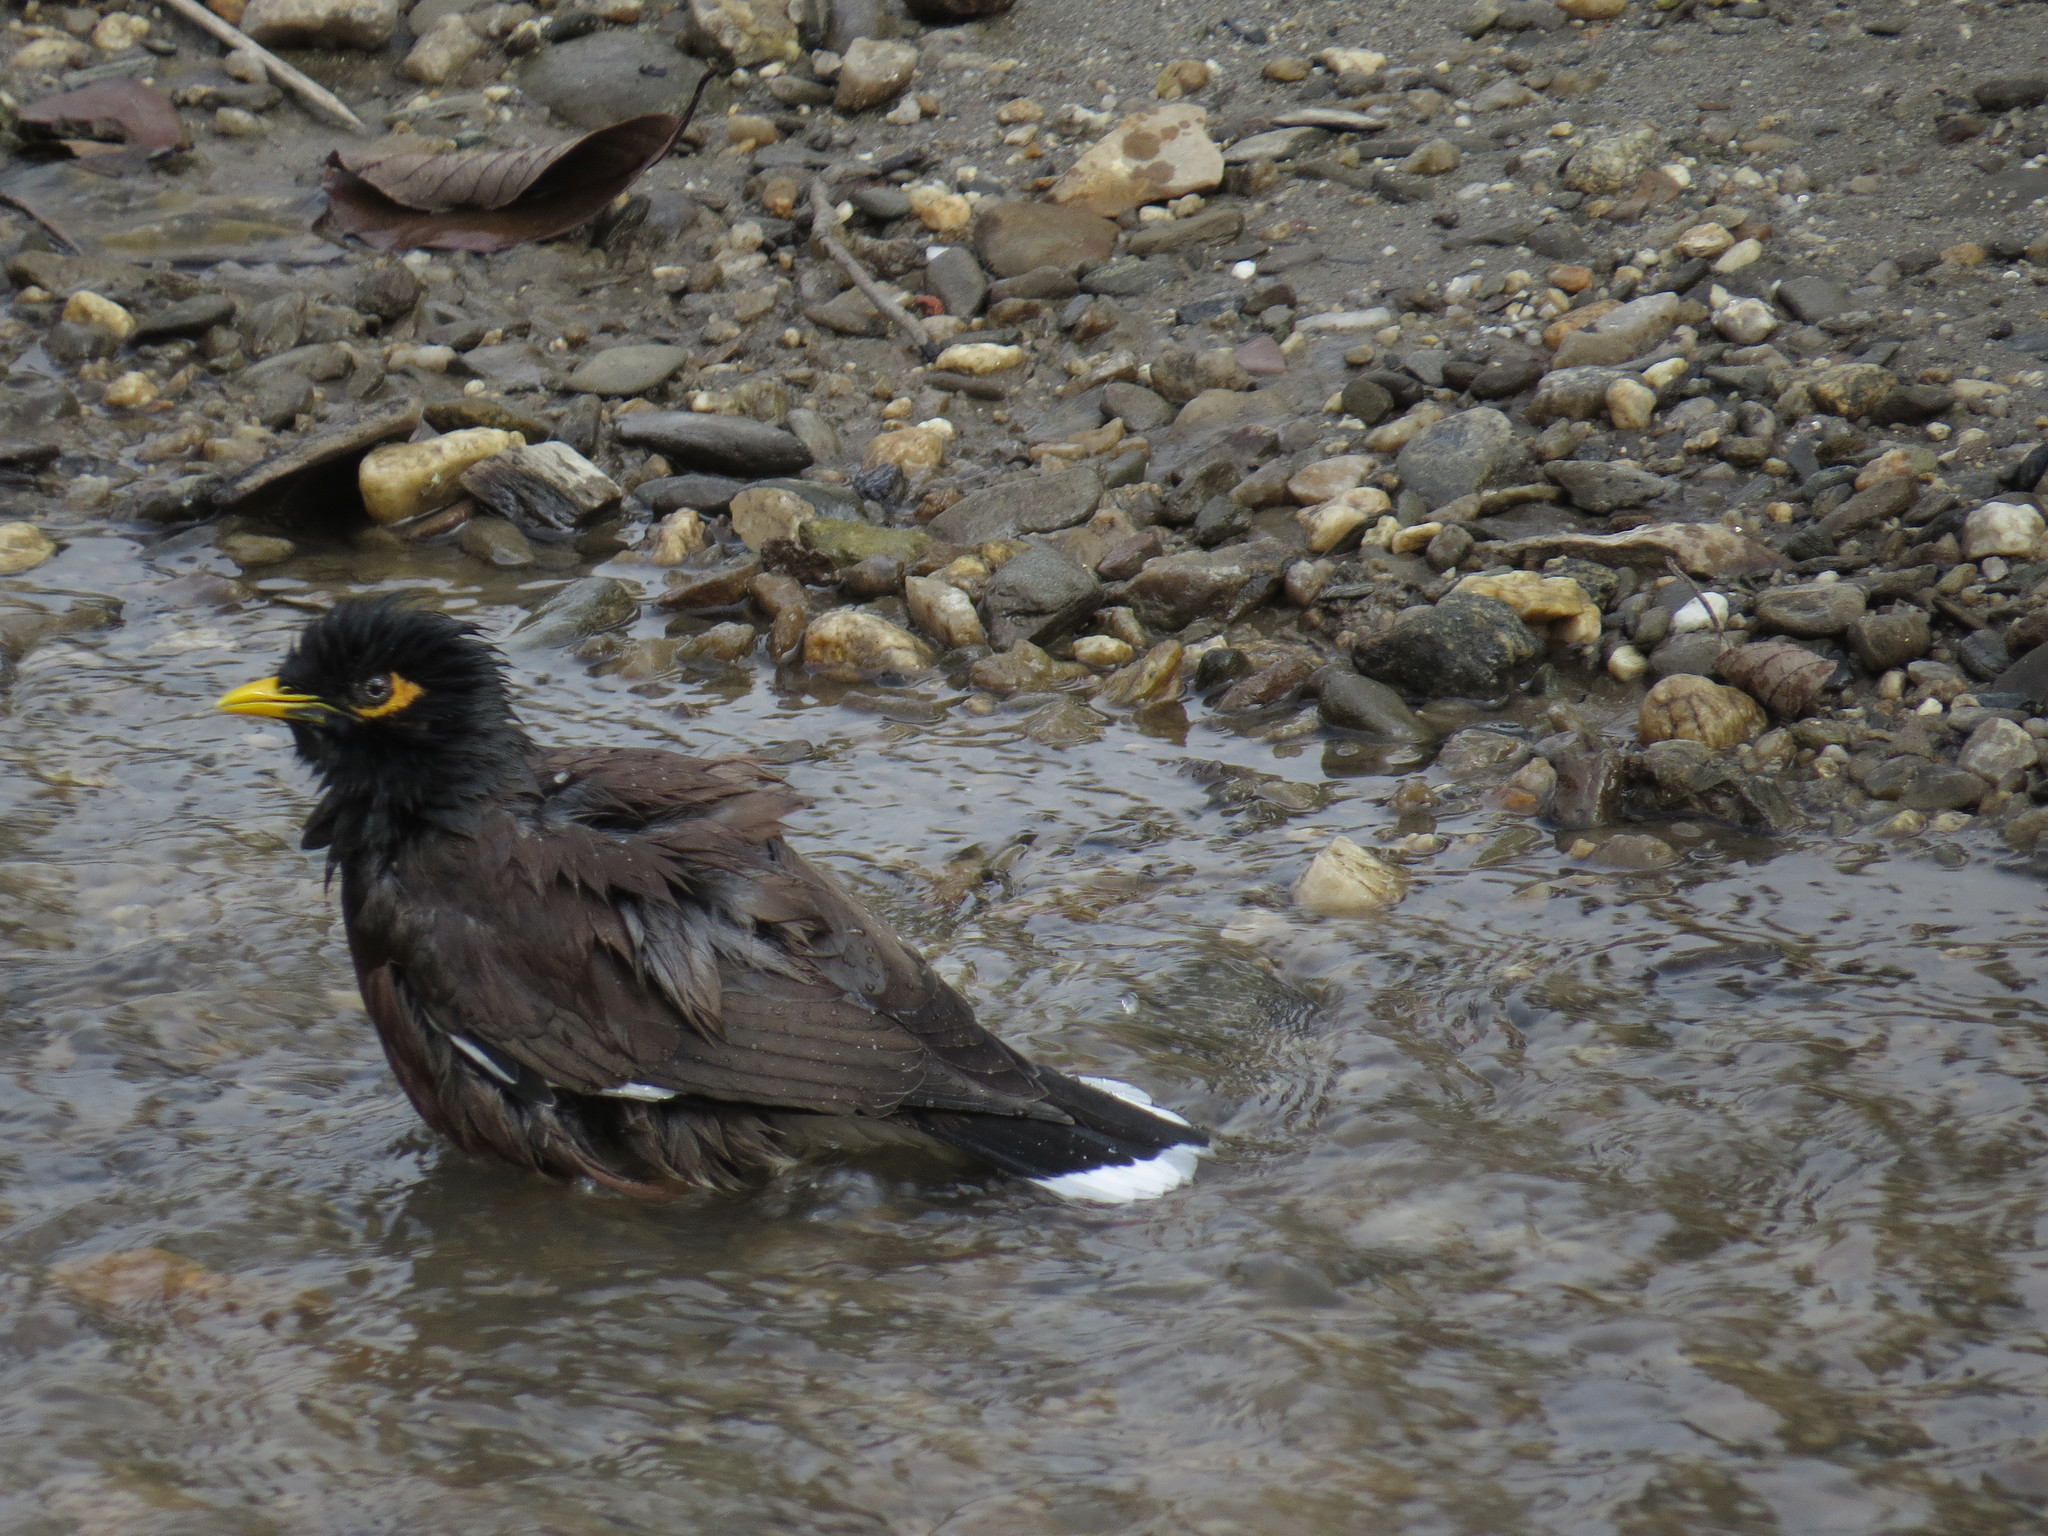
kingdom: Animalia
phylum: Chordata
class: Aves
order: Passeriformes
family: Sturnidae
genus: Acridotheres
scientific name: Acridotheres tristis
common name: Common myna
